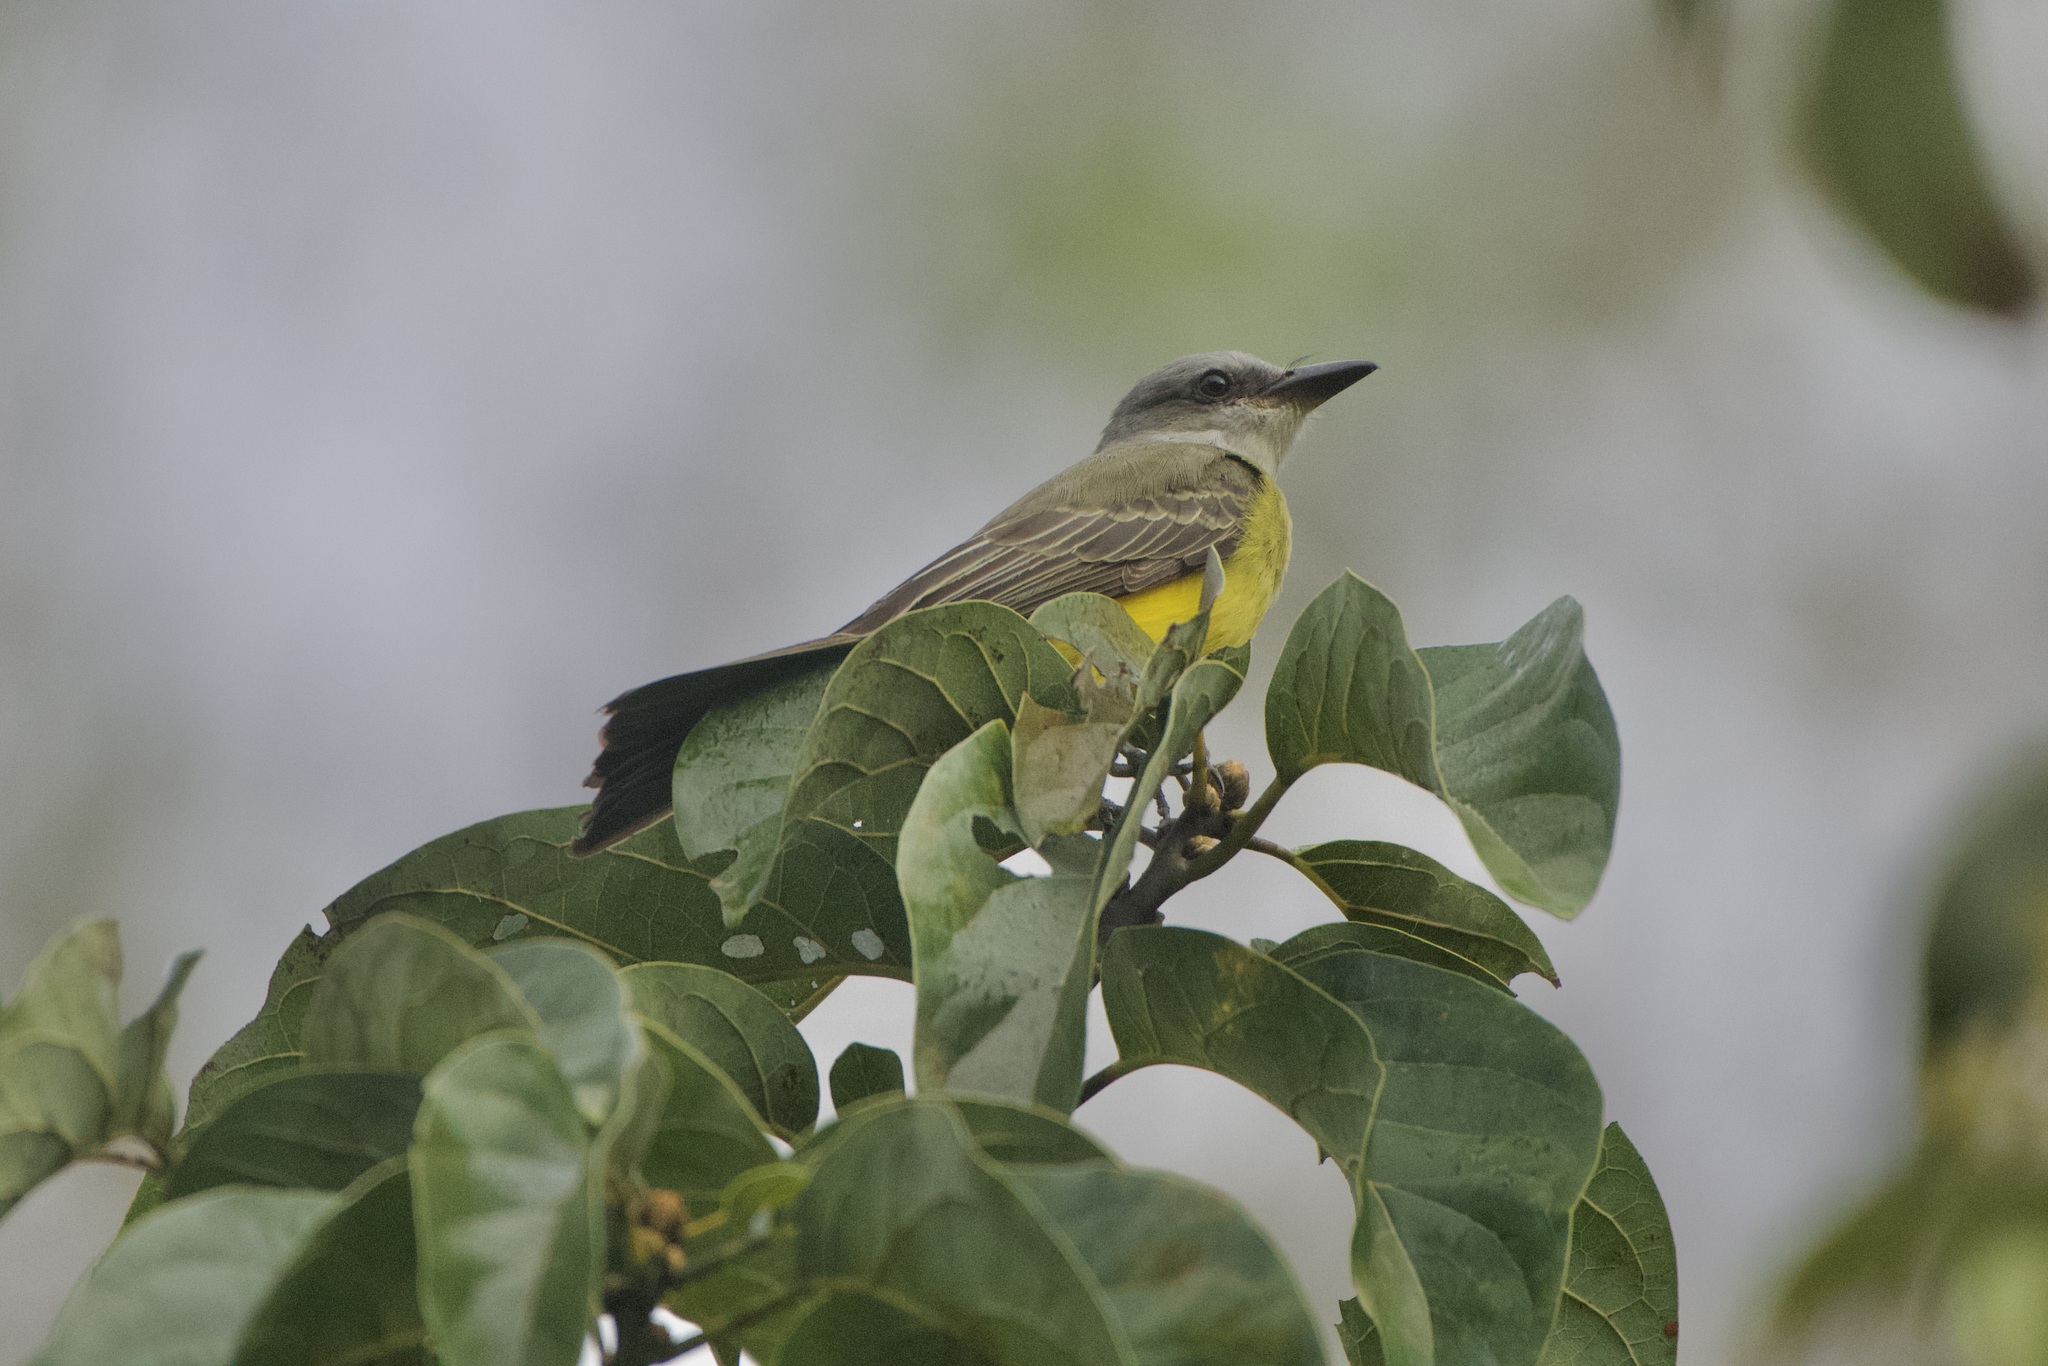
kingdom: Animalia
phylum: Chordata
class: Aves
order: Passeriformes
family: Tyrannidae
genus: Tyrannus
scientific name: Tyrannus melancholicus
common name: Tropical kingbird
